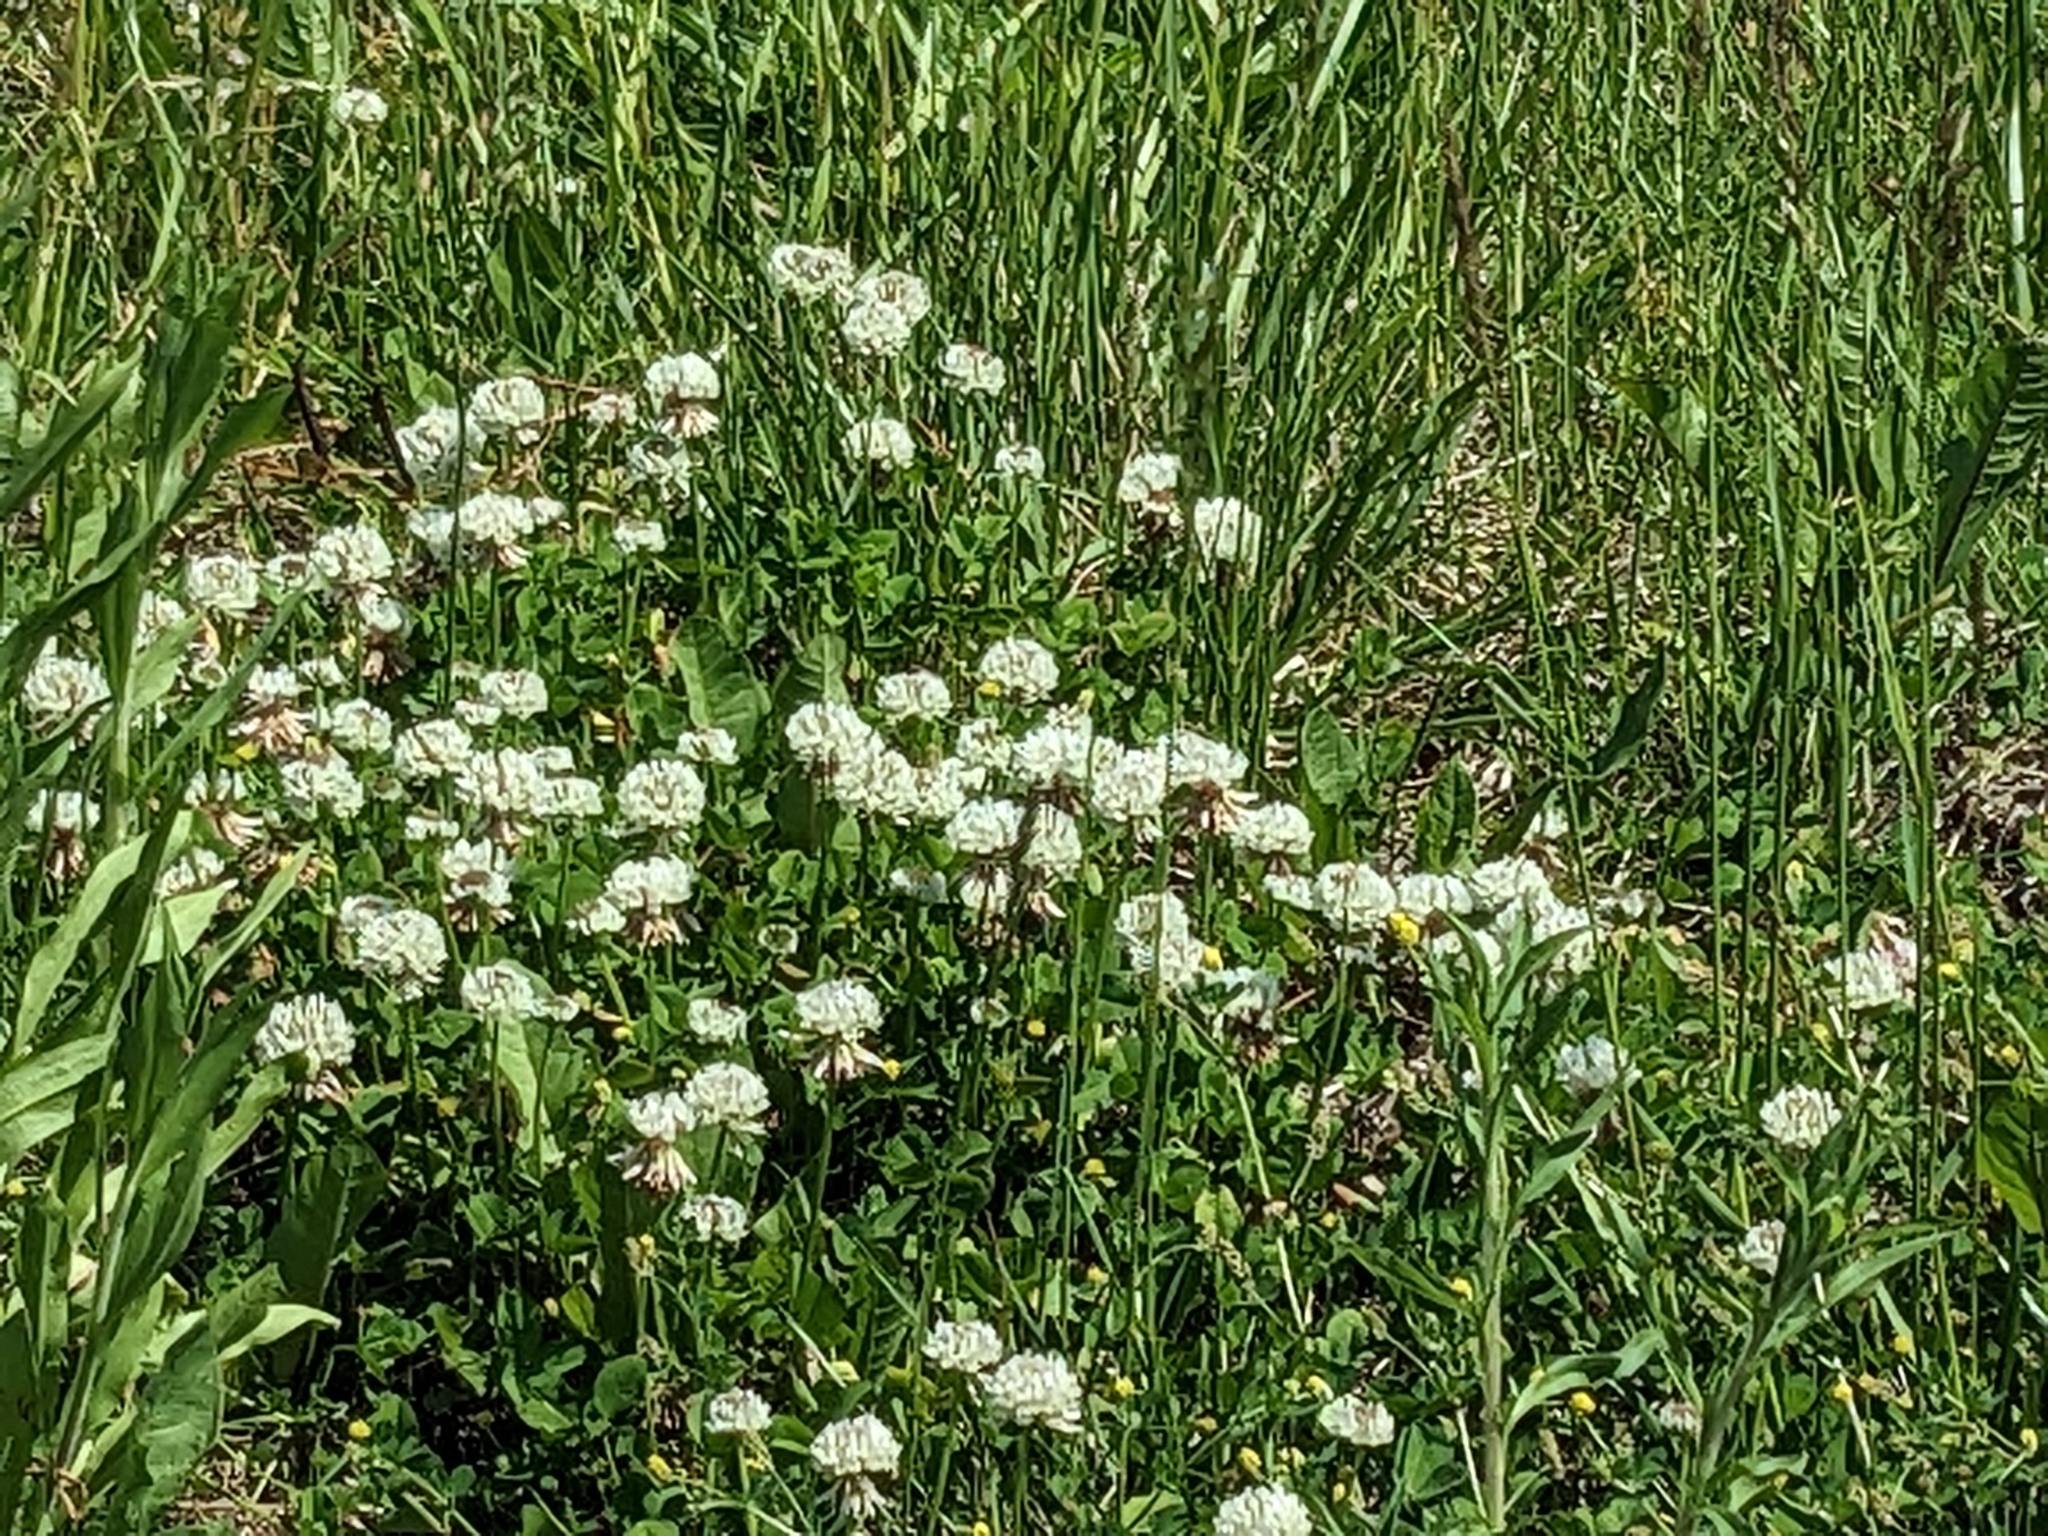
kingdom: Plantae
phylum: Tracheophyta
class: Magnoliopsida
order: Fabales
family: Fabaceae
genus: Trifolium
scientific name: Trifolium repens
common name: White clover
